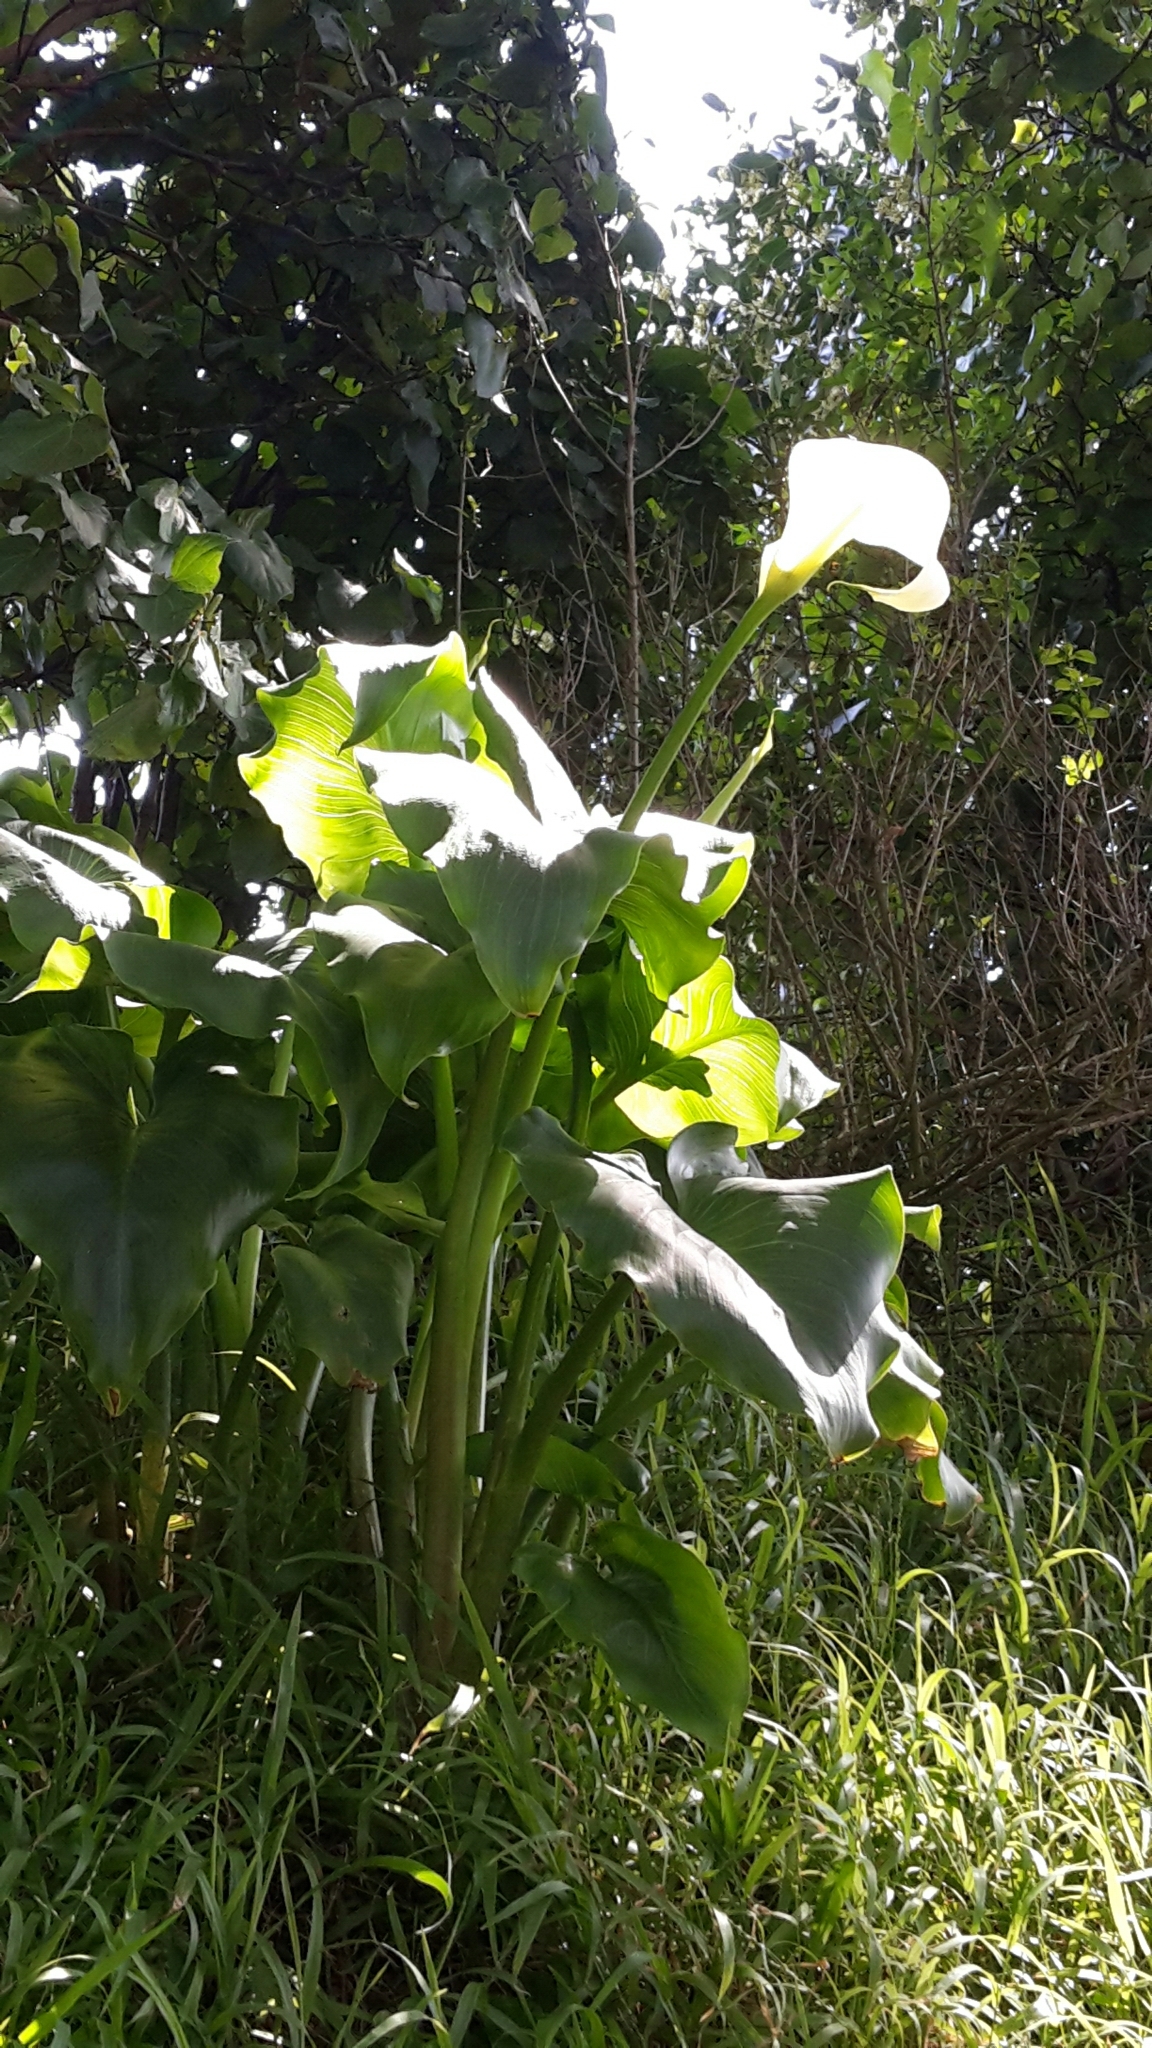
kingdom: Plantae
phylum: Tracheophyta
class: Liliopsida
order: Alismatales
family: Araceae
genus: Zantedeschia
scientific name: Zantedeschia aethiopica
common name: Altar-lily
